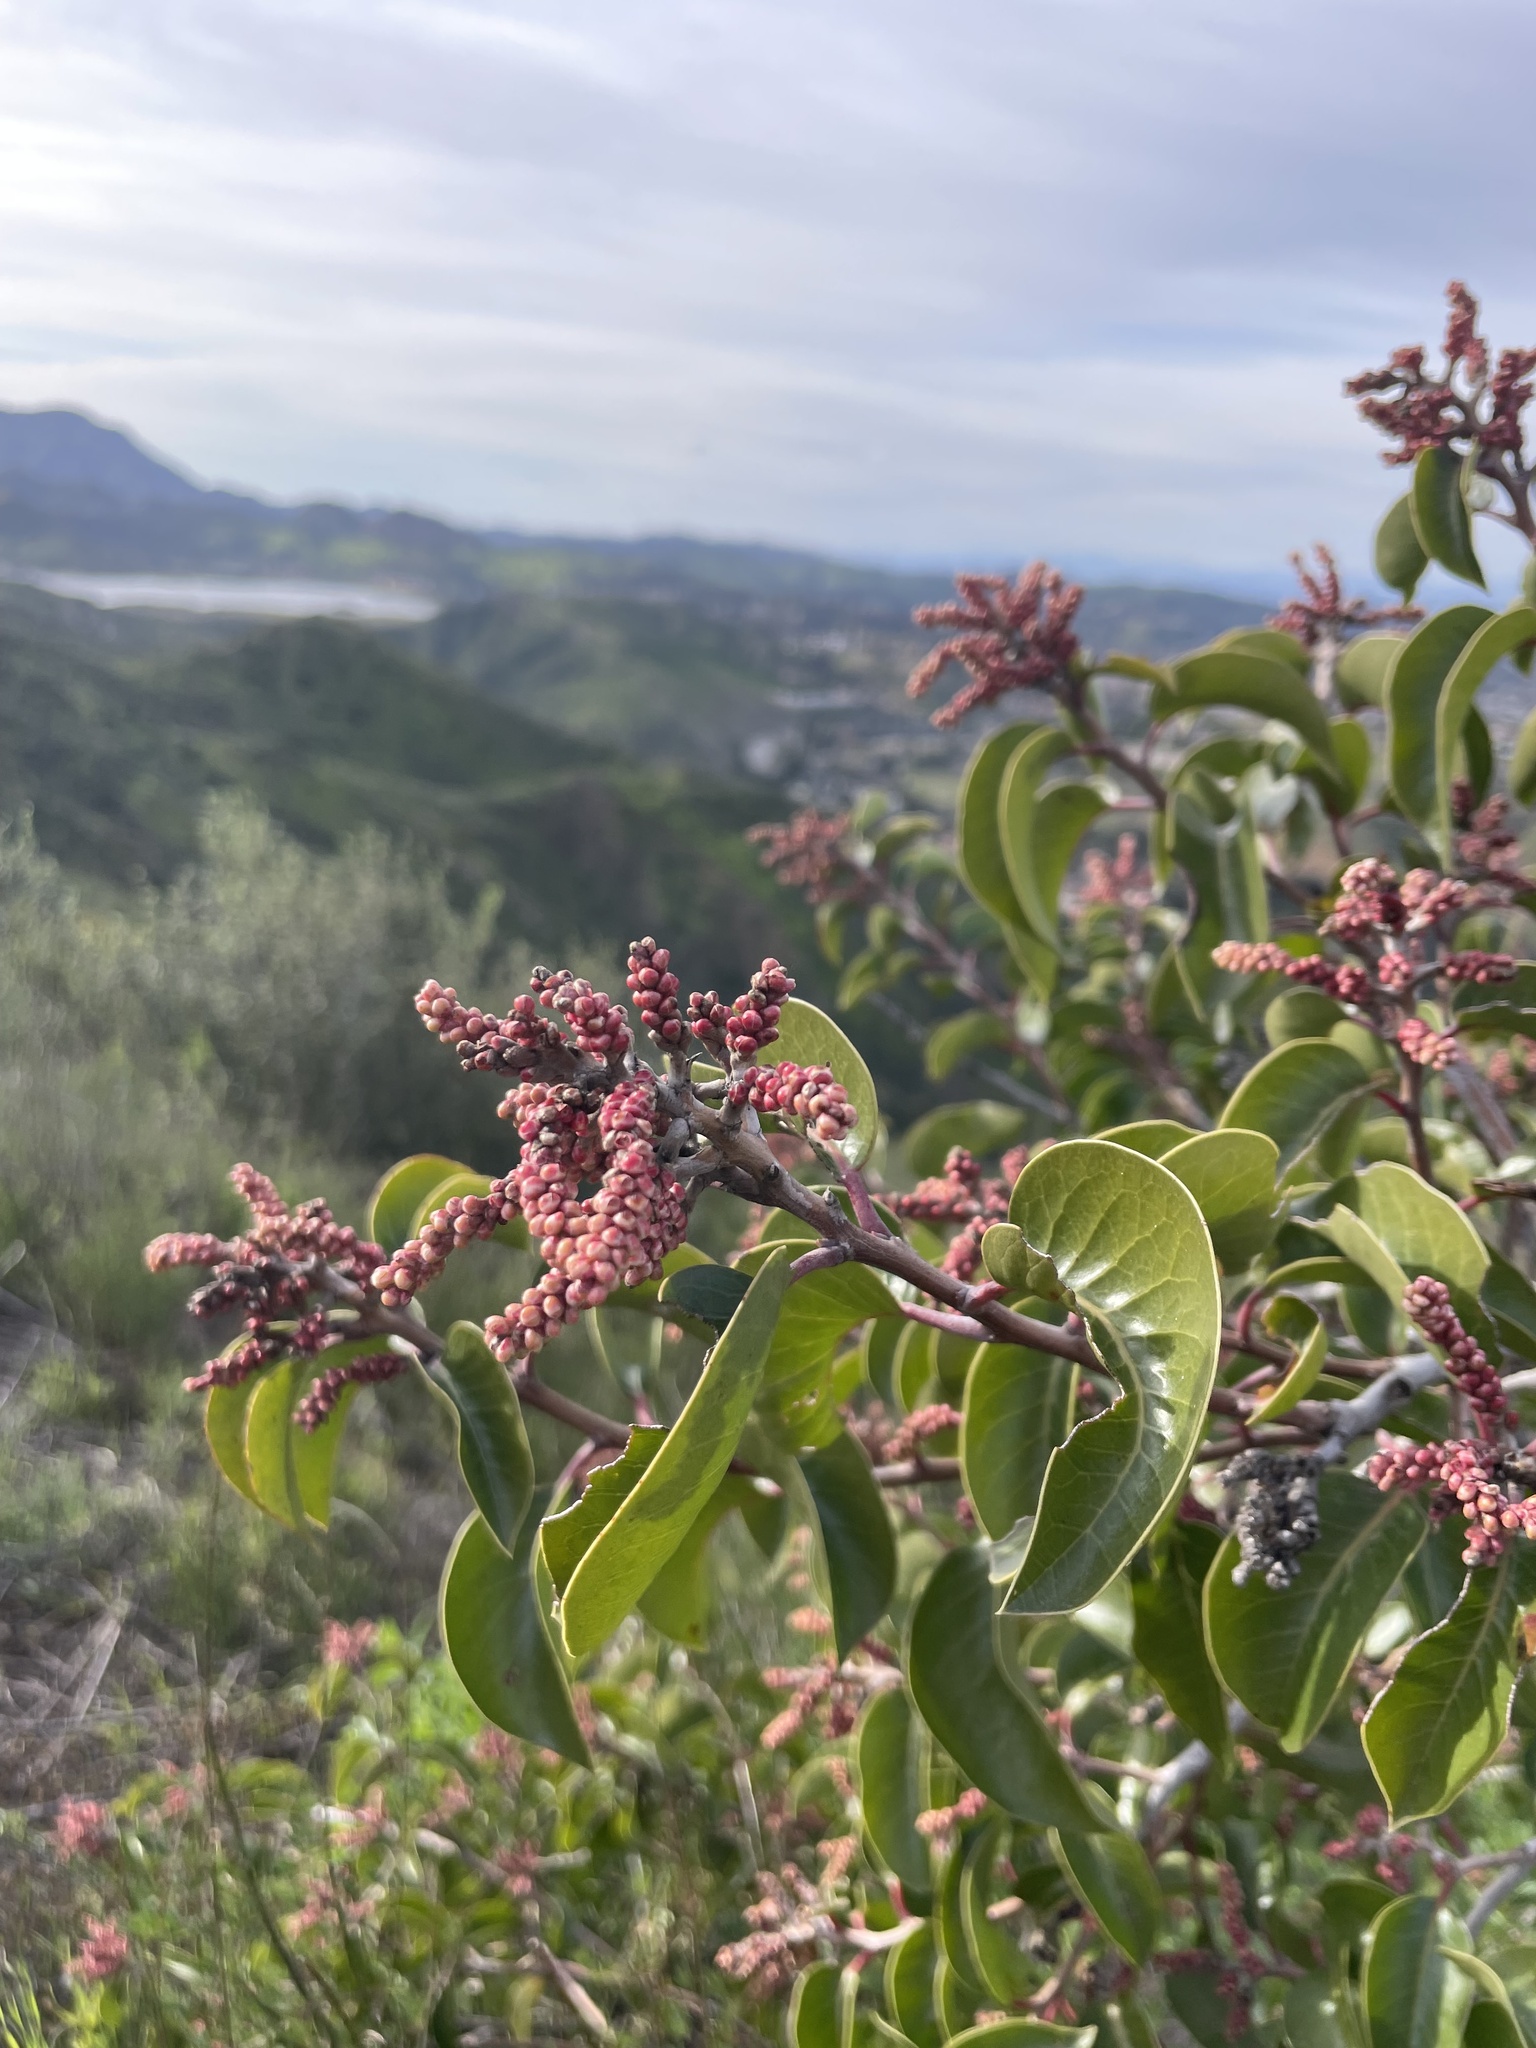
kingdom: Plantae
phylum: Tracheophyta
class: Magnoliopsida
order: Sapindales
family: Anacardiaceae
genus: Rhus
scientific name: Rhus ovata
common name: Sugar sumac
